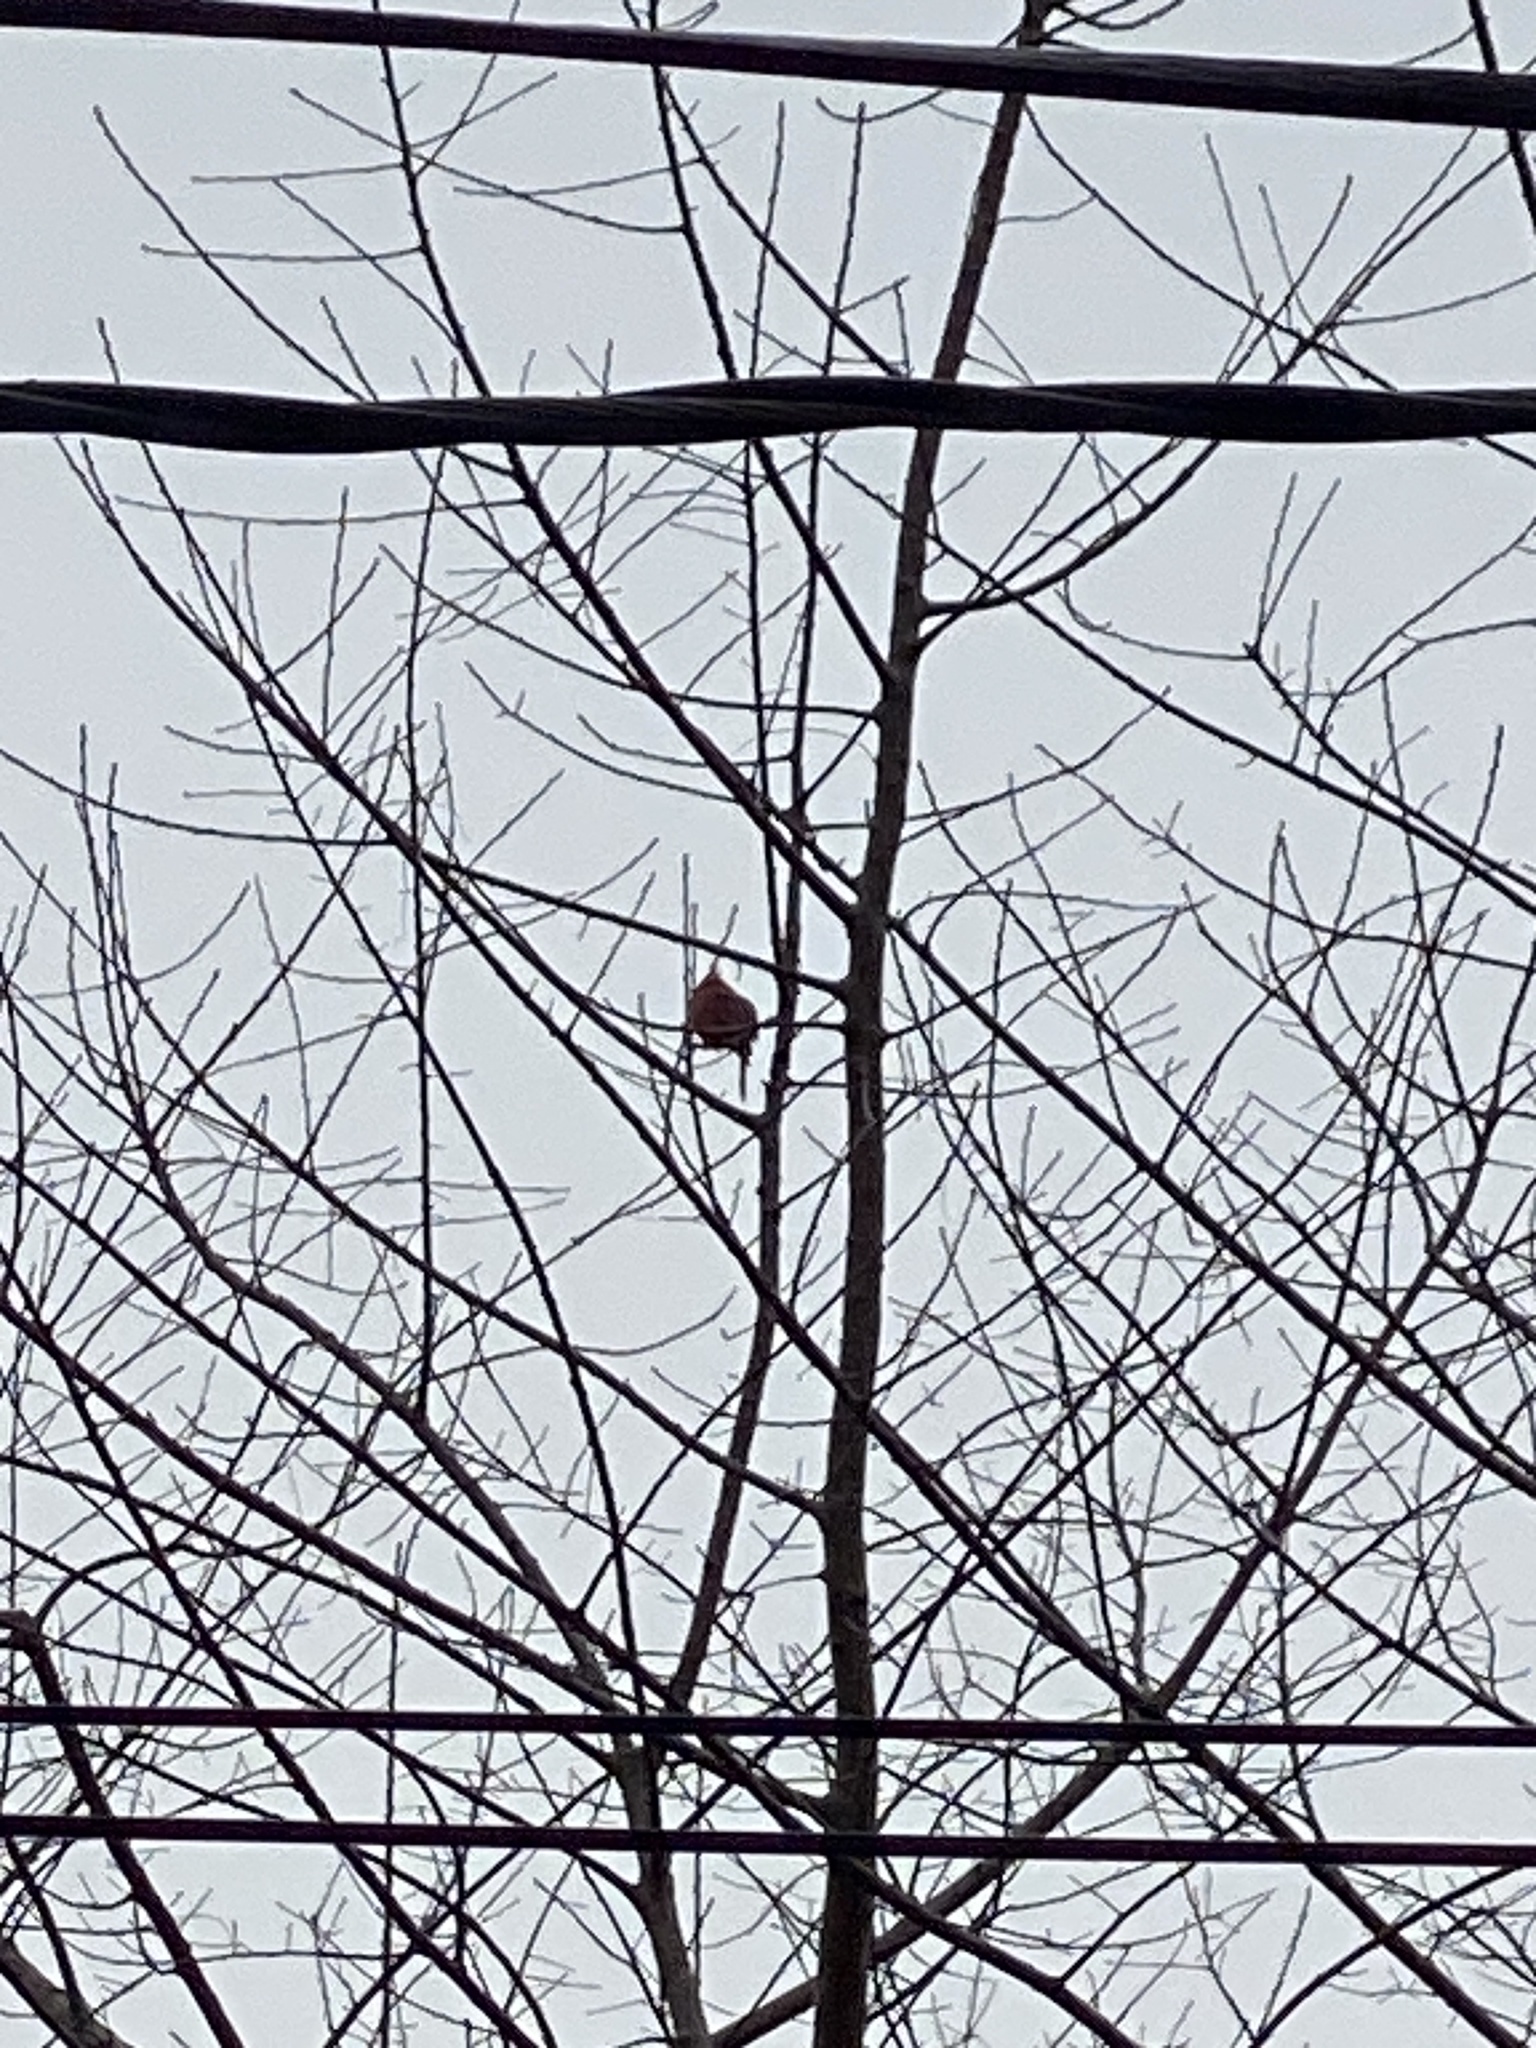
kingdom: Animalia
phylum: Chordata
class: Aves
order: Passeriformes
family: Cardinalidae
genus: Cardinalis
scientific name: Cardinalis cardinalis
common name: Northern cardinal
